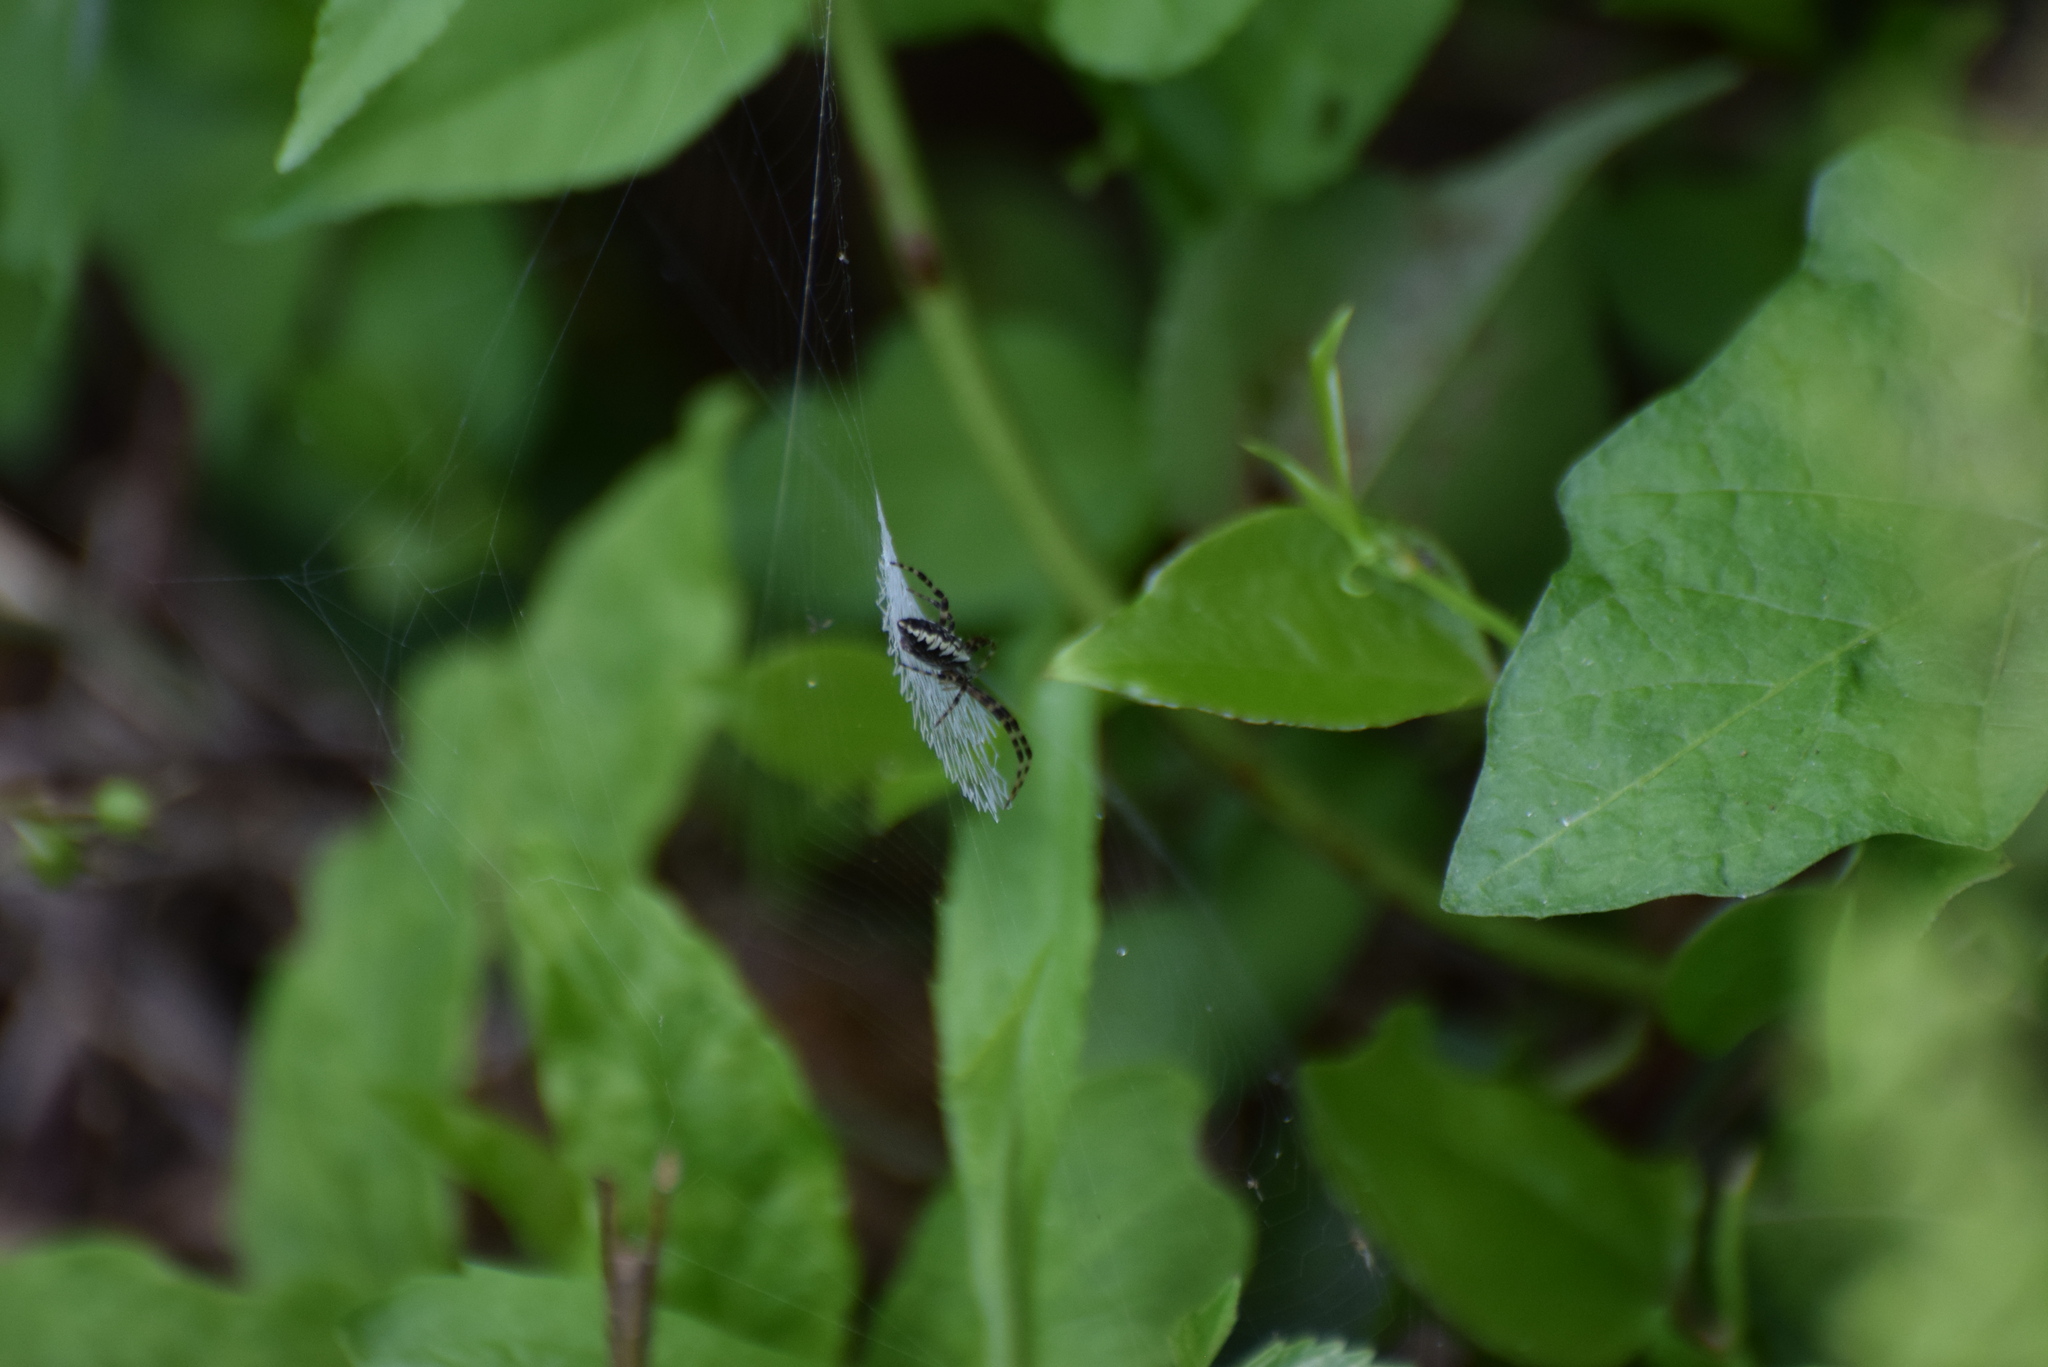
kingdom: Animalia
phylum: Arthropoda
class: Arachnida
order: Araneae
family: Araneidae
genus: Argiope
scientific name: Argiope aurantia
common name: Orb weavers
